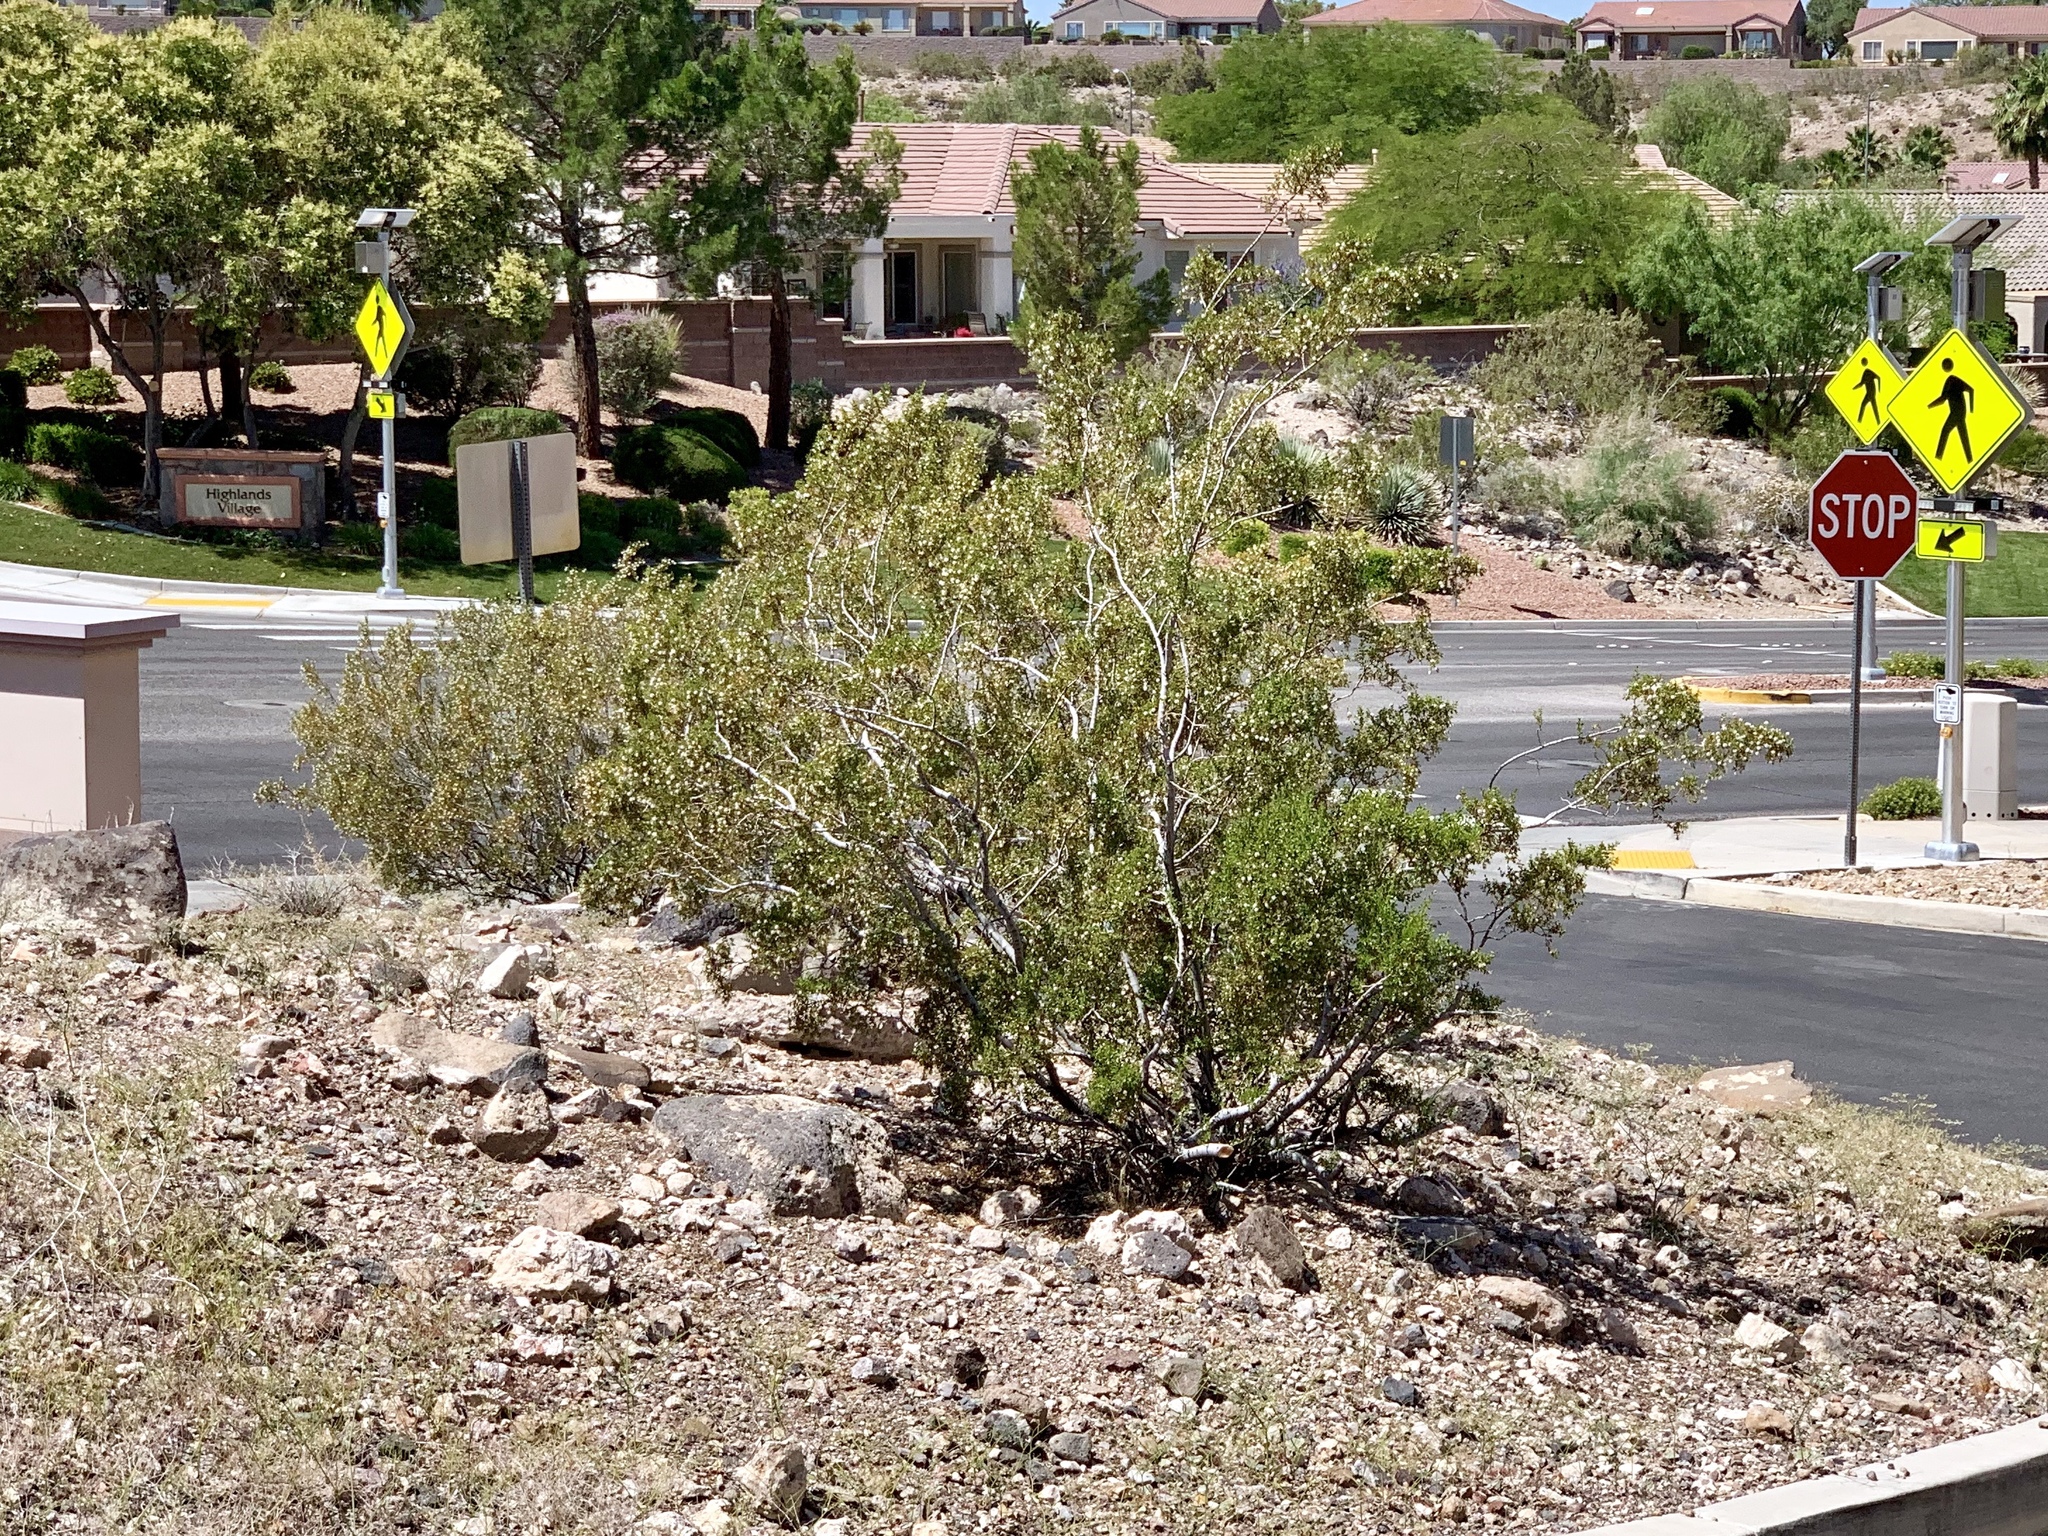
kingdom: Plantae
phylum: Tracheophyta
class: Magnoliopsida
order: Zygophyllales
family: Zygophyllaceae
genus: Larrea
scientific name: Larrea tridentata
